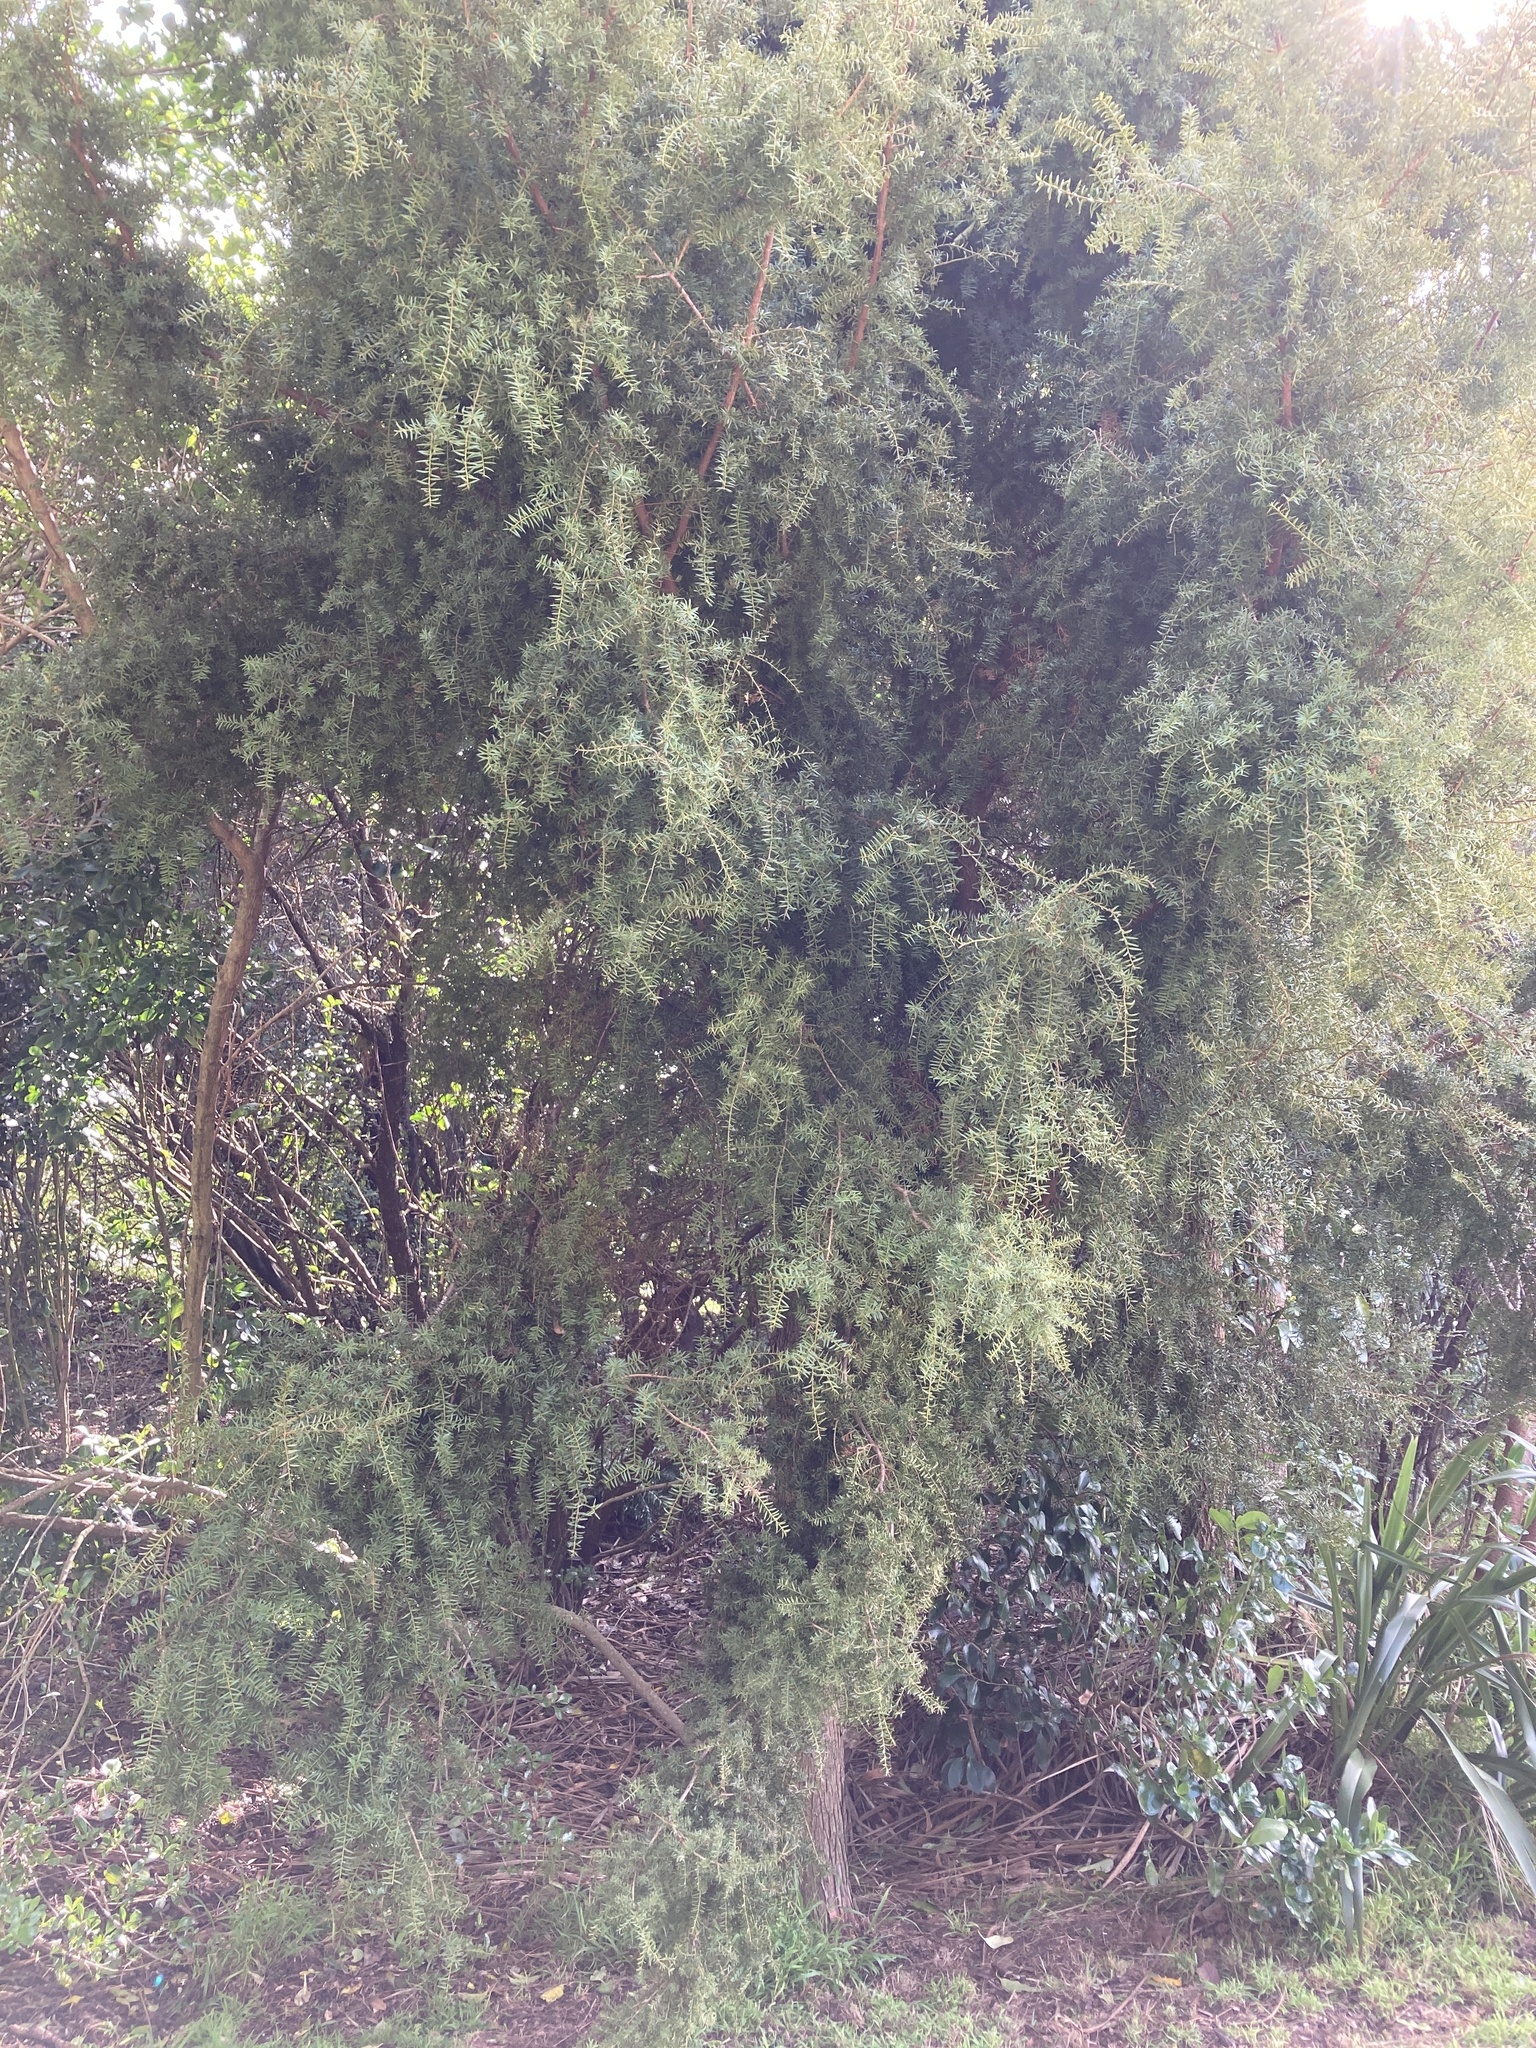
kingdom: Plantae
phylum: Tracheophyta
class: Pinopsida
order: Pinales
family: Podocarpaceae
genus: Podocarpus
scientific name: Podocarpus totara
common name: Totara
